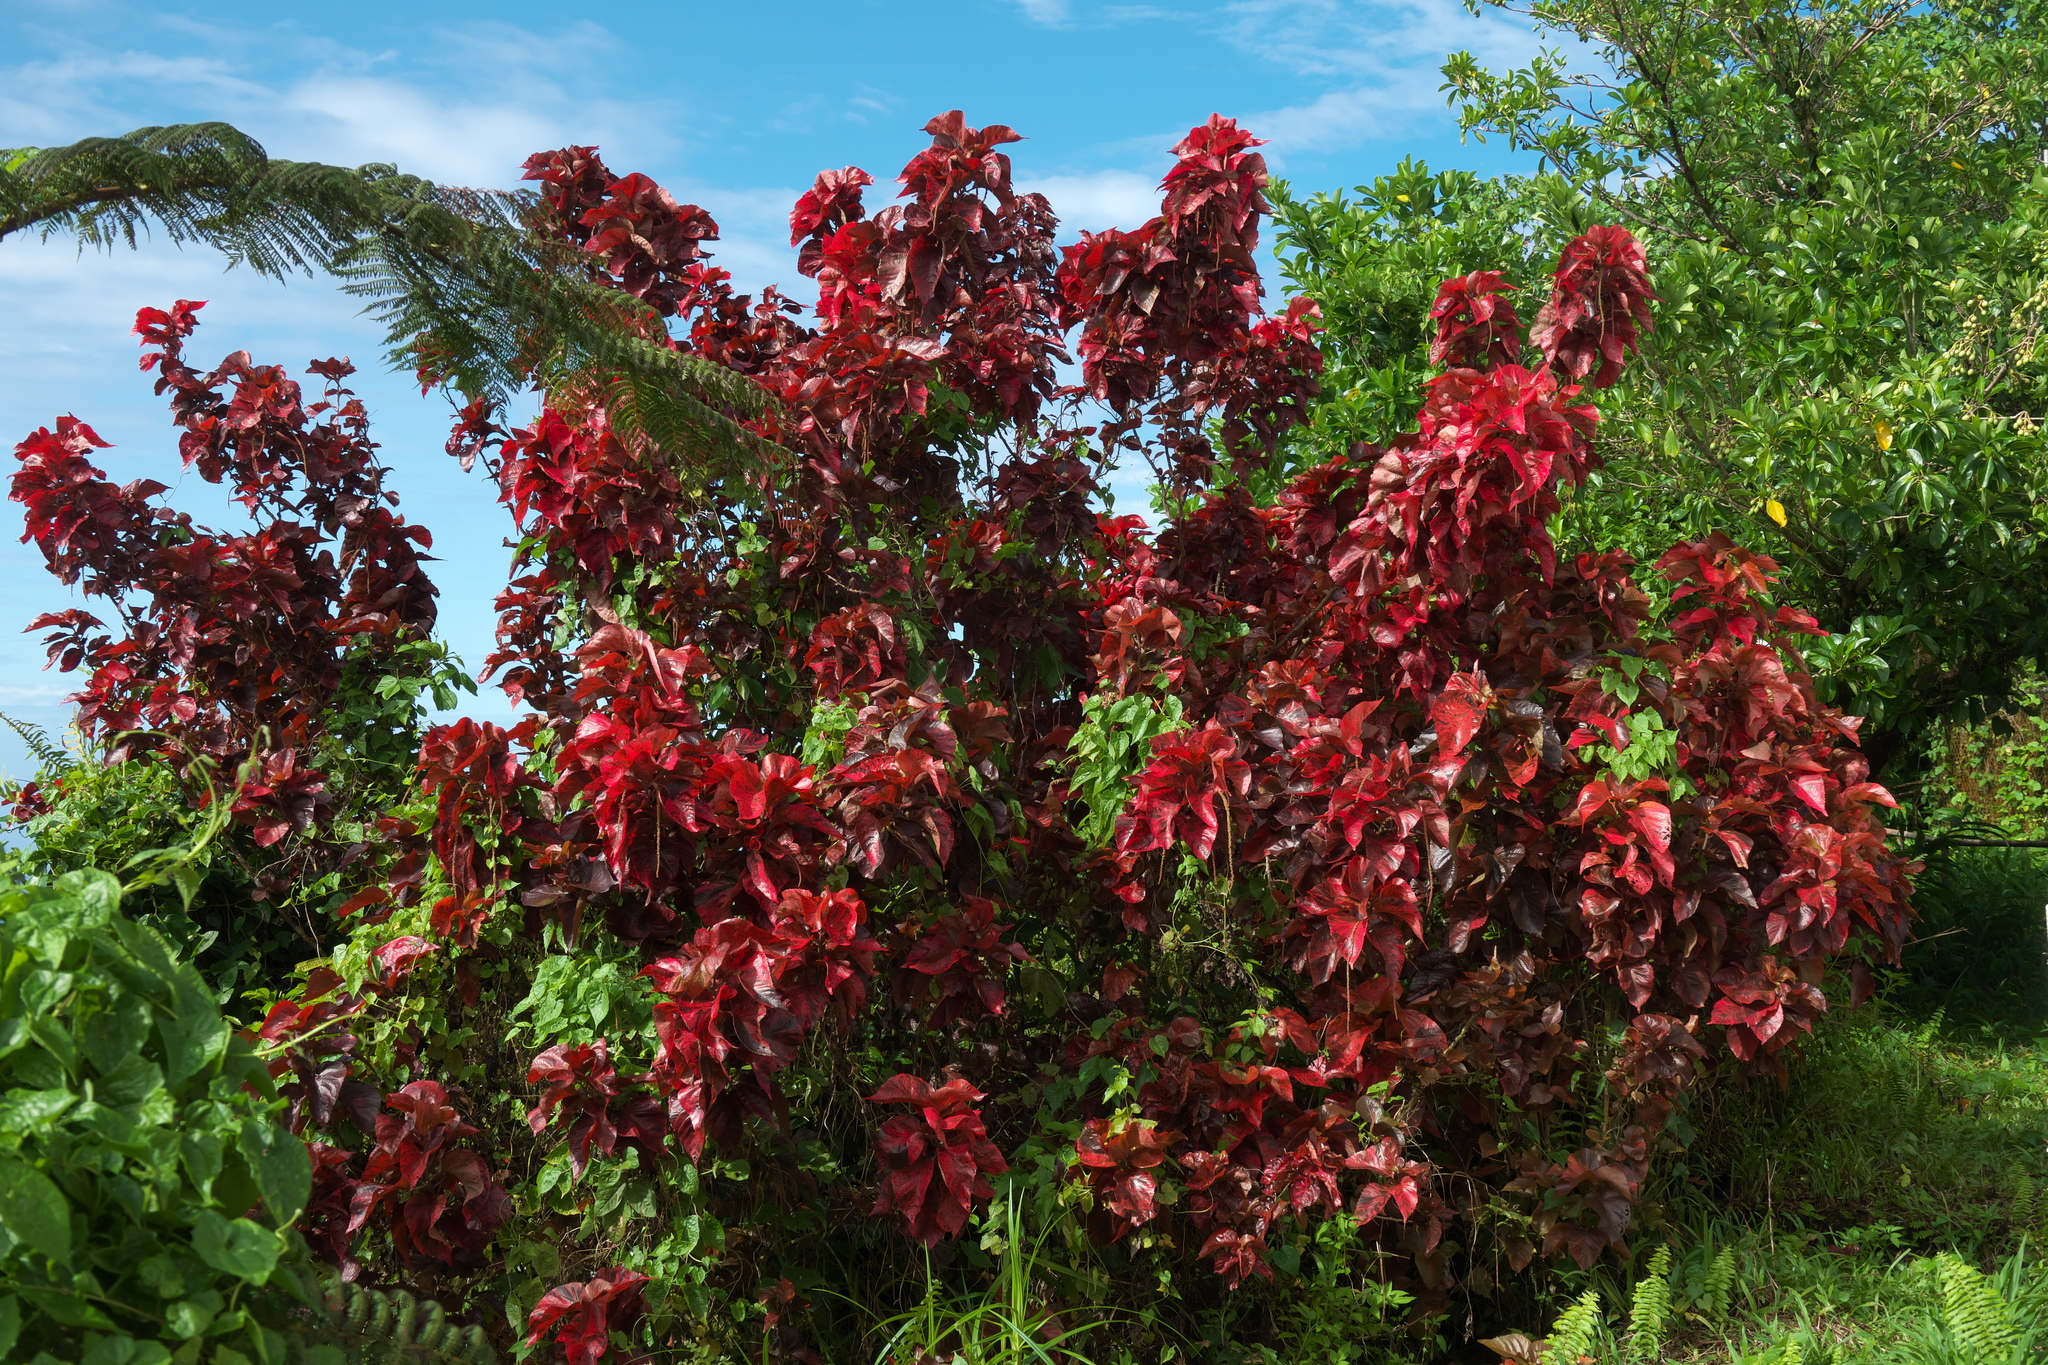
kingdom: Plantae
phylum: Tracheophyta
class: Magnoliopsida
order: Malpighiales
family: Euphorbiaceae
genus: Acalypha
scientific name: Acalypha wilkesiana
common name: Jacob's coat
